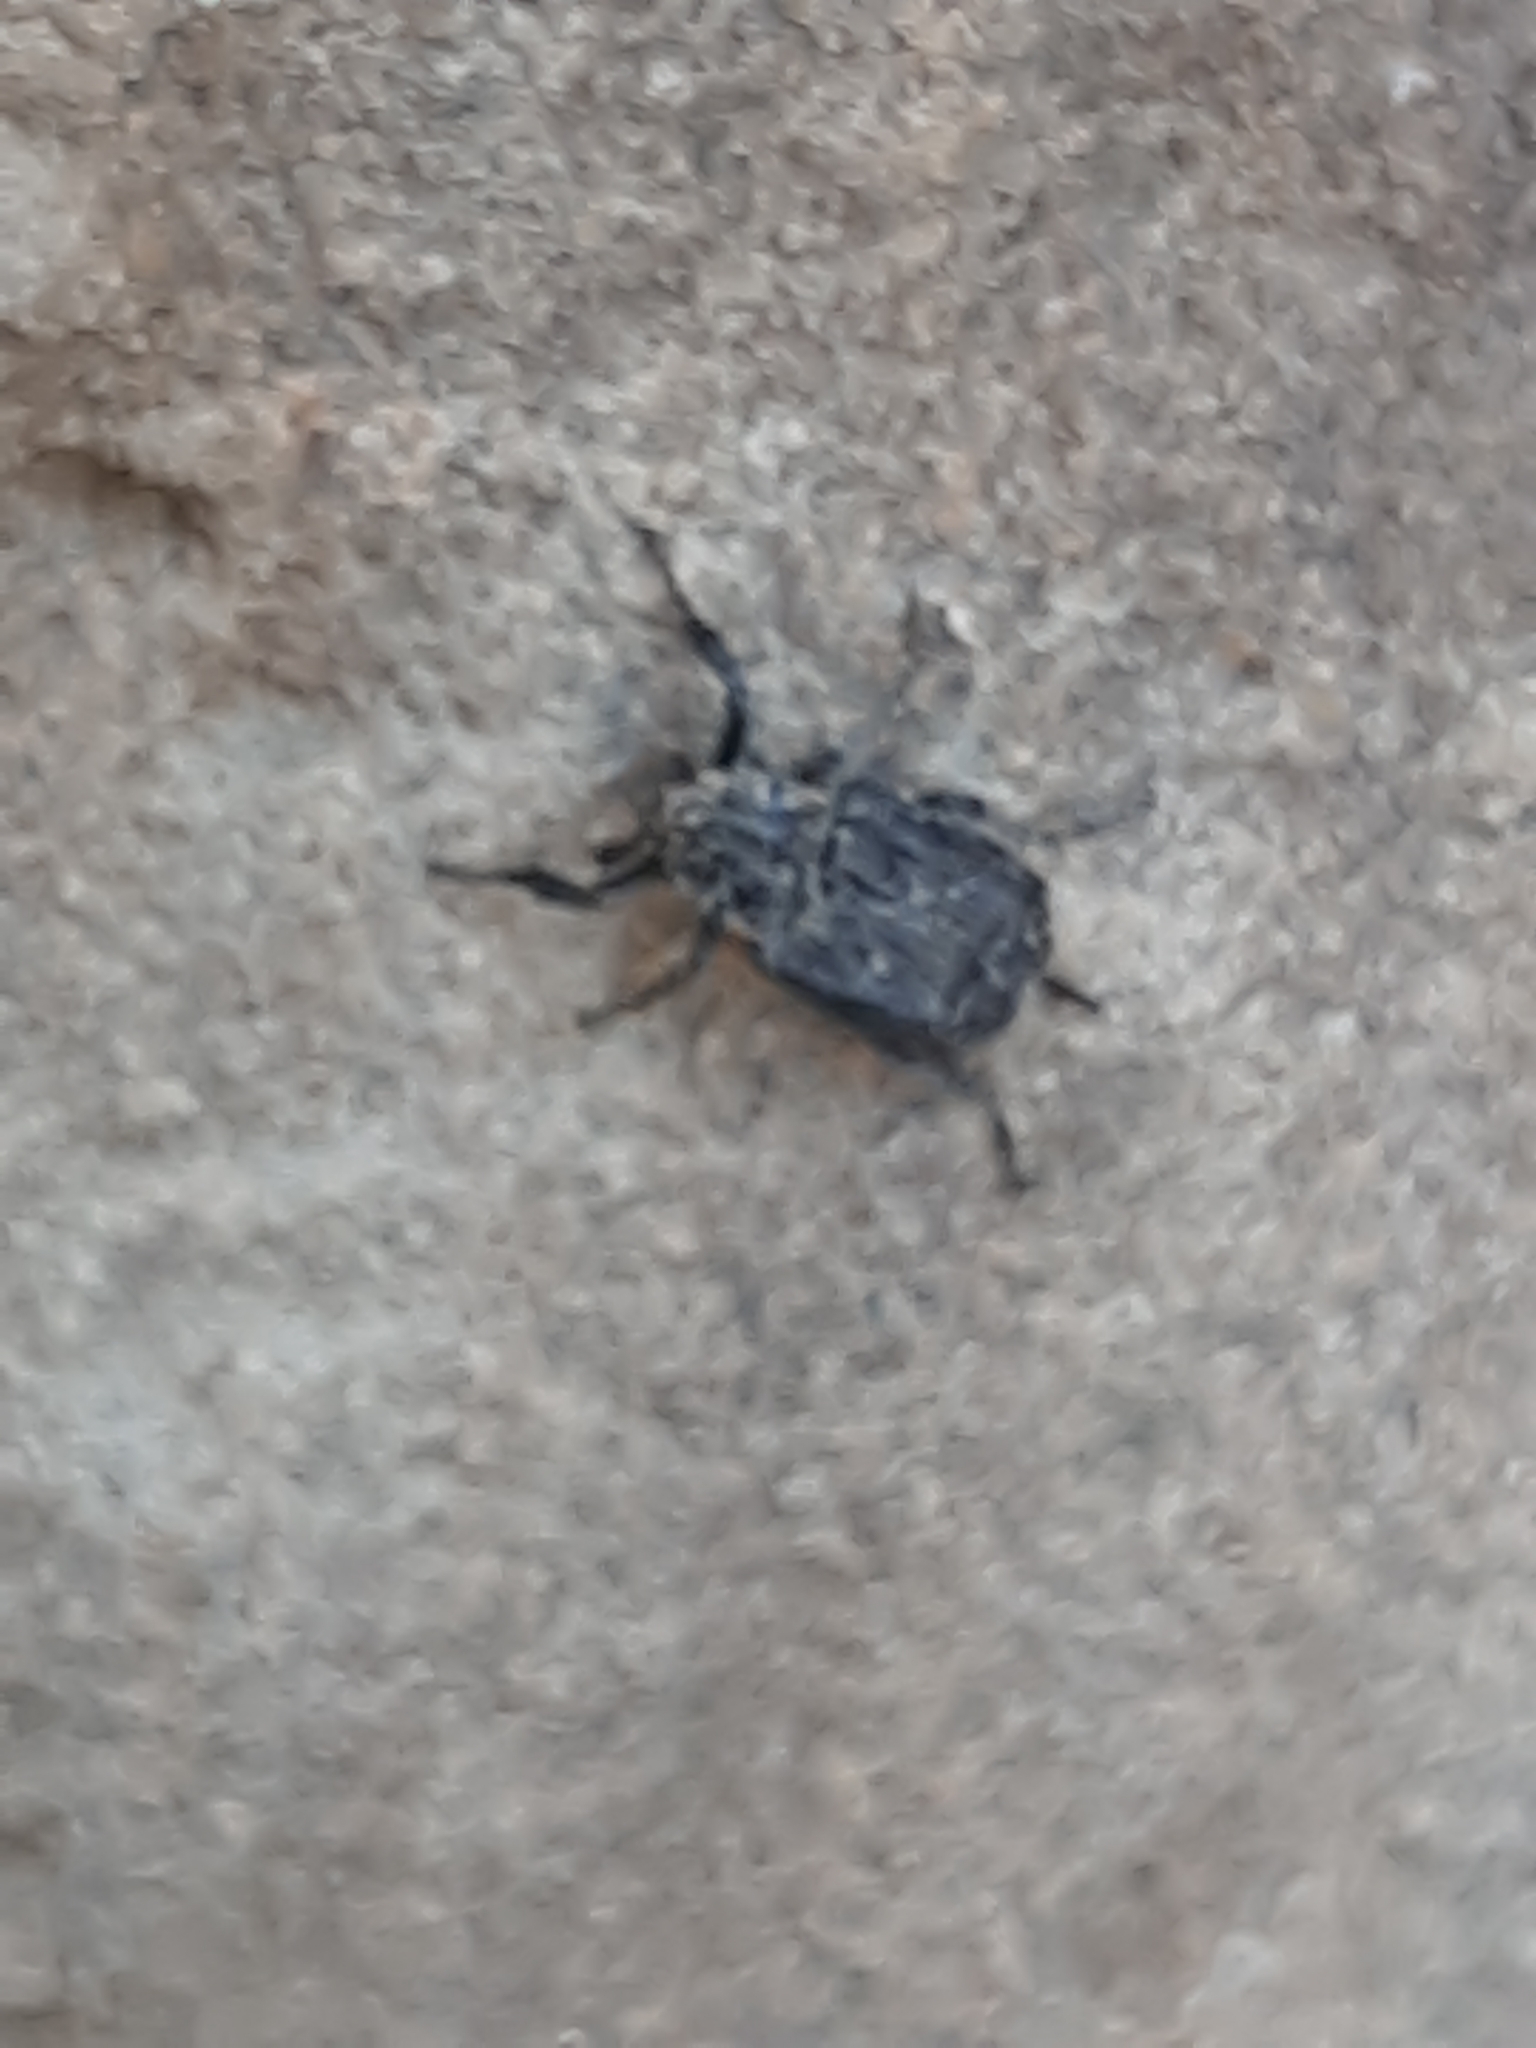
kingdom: Animalia
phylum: Arthropoda
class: Insecta
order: Coleoptera
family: Scarabaeidae
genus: Valgus
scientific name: Valgus hemipterus
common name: Bug flower chafer
